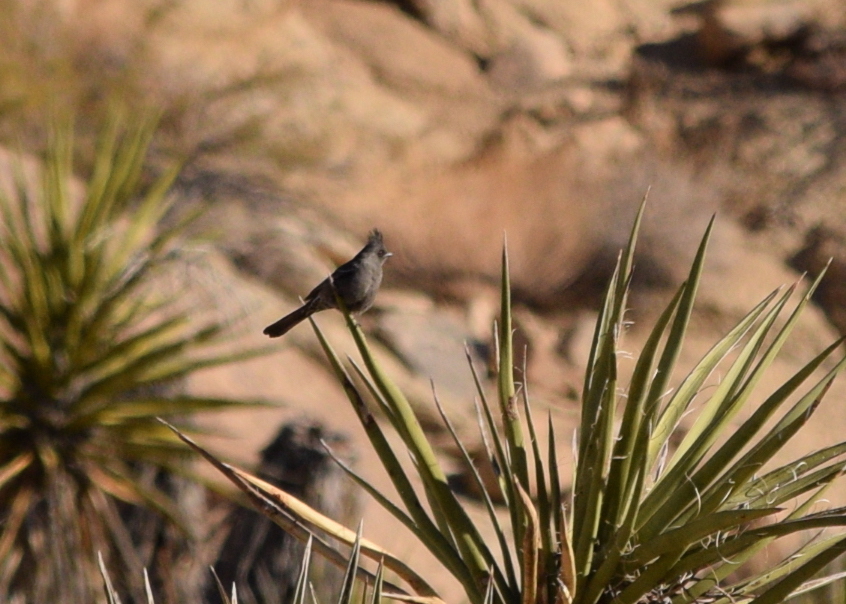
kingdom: Animalia
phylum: Chordata
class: Aves
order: Passeriformes
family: Ptilogonatidae
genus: Phainopepla
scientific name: Phainopepla nitens
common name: Phainopepla
